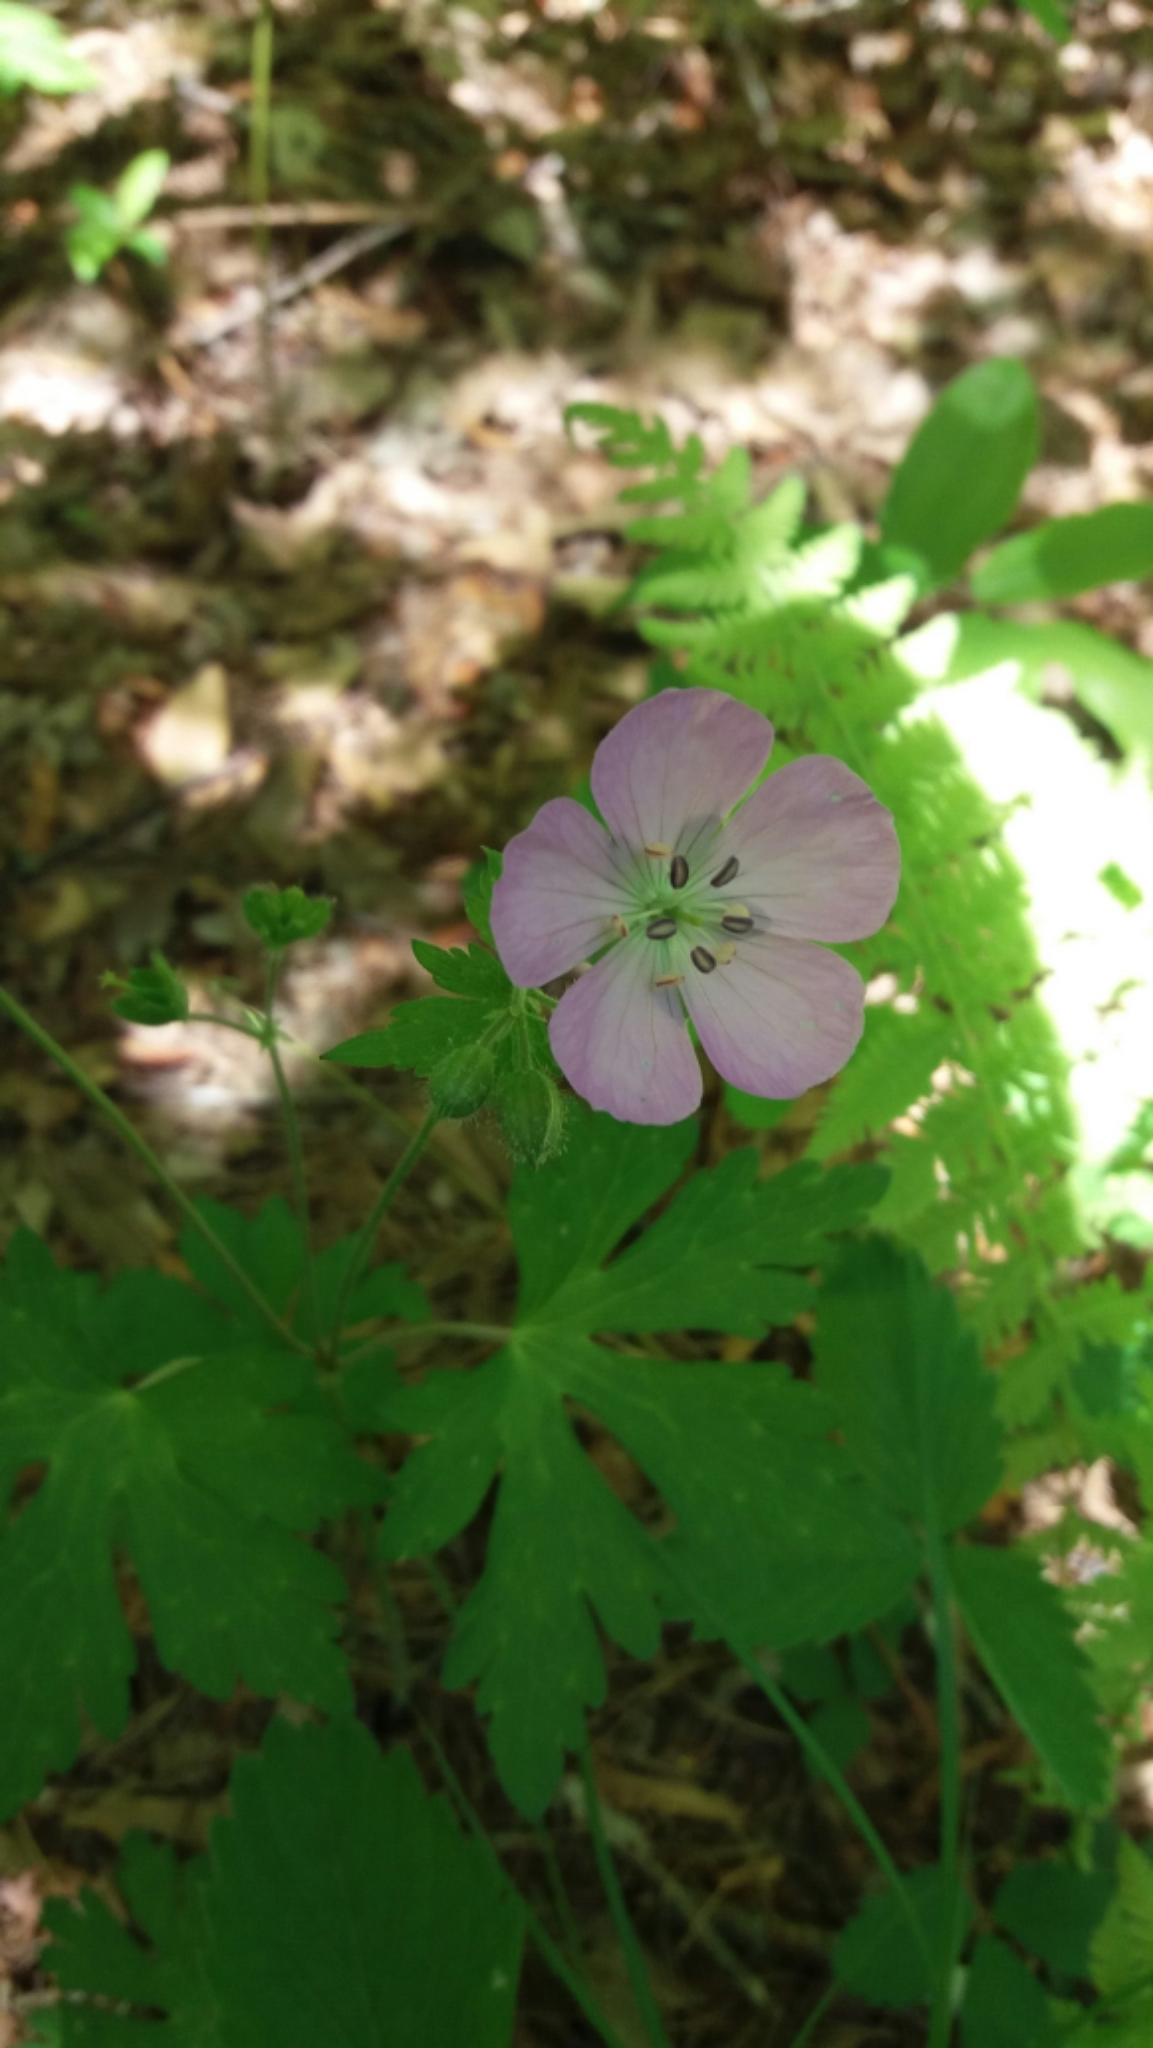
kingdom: Plantae
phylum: Tracheophyta
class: Magnoliopsida
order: Geraniales
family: Geraniaceae
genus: Geranium
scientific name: Geranium maculatum
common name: Spotted geranium
